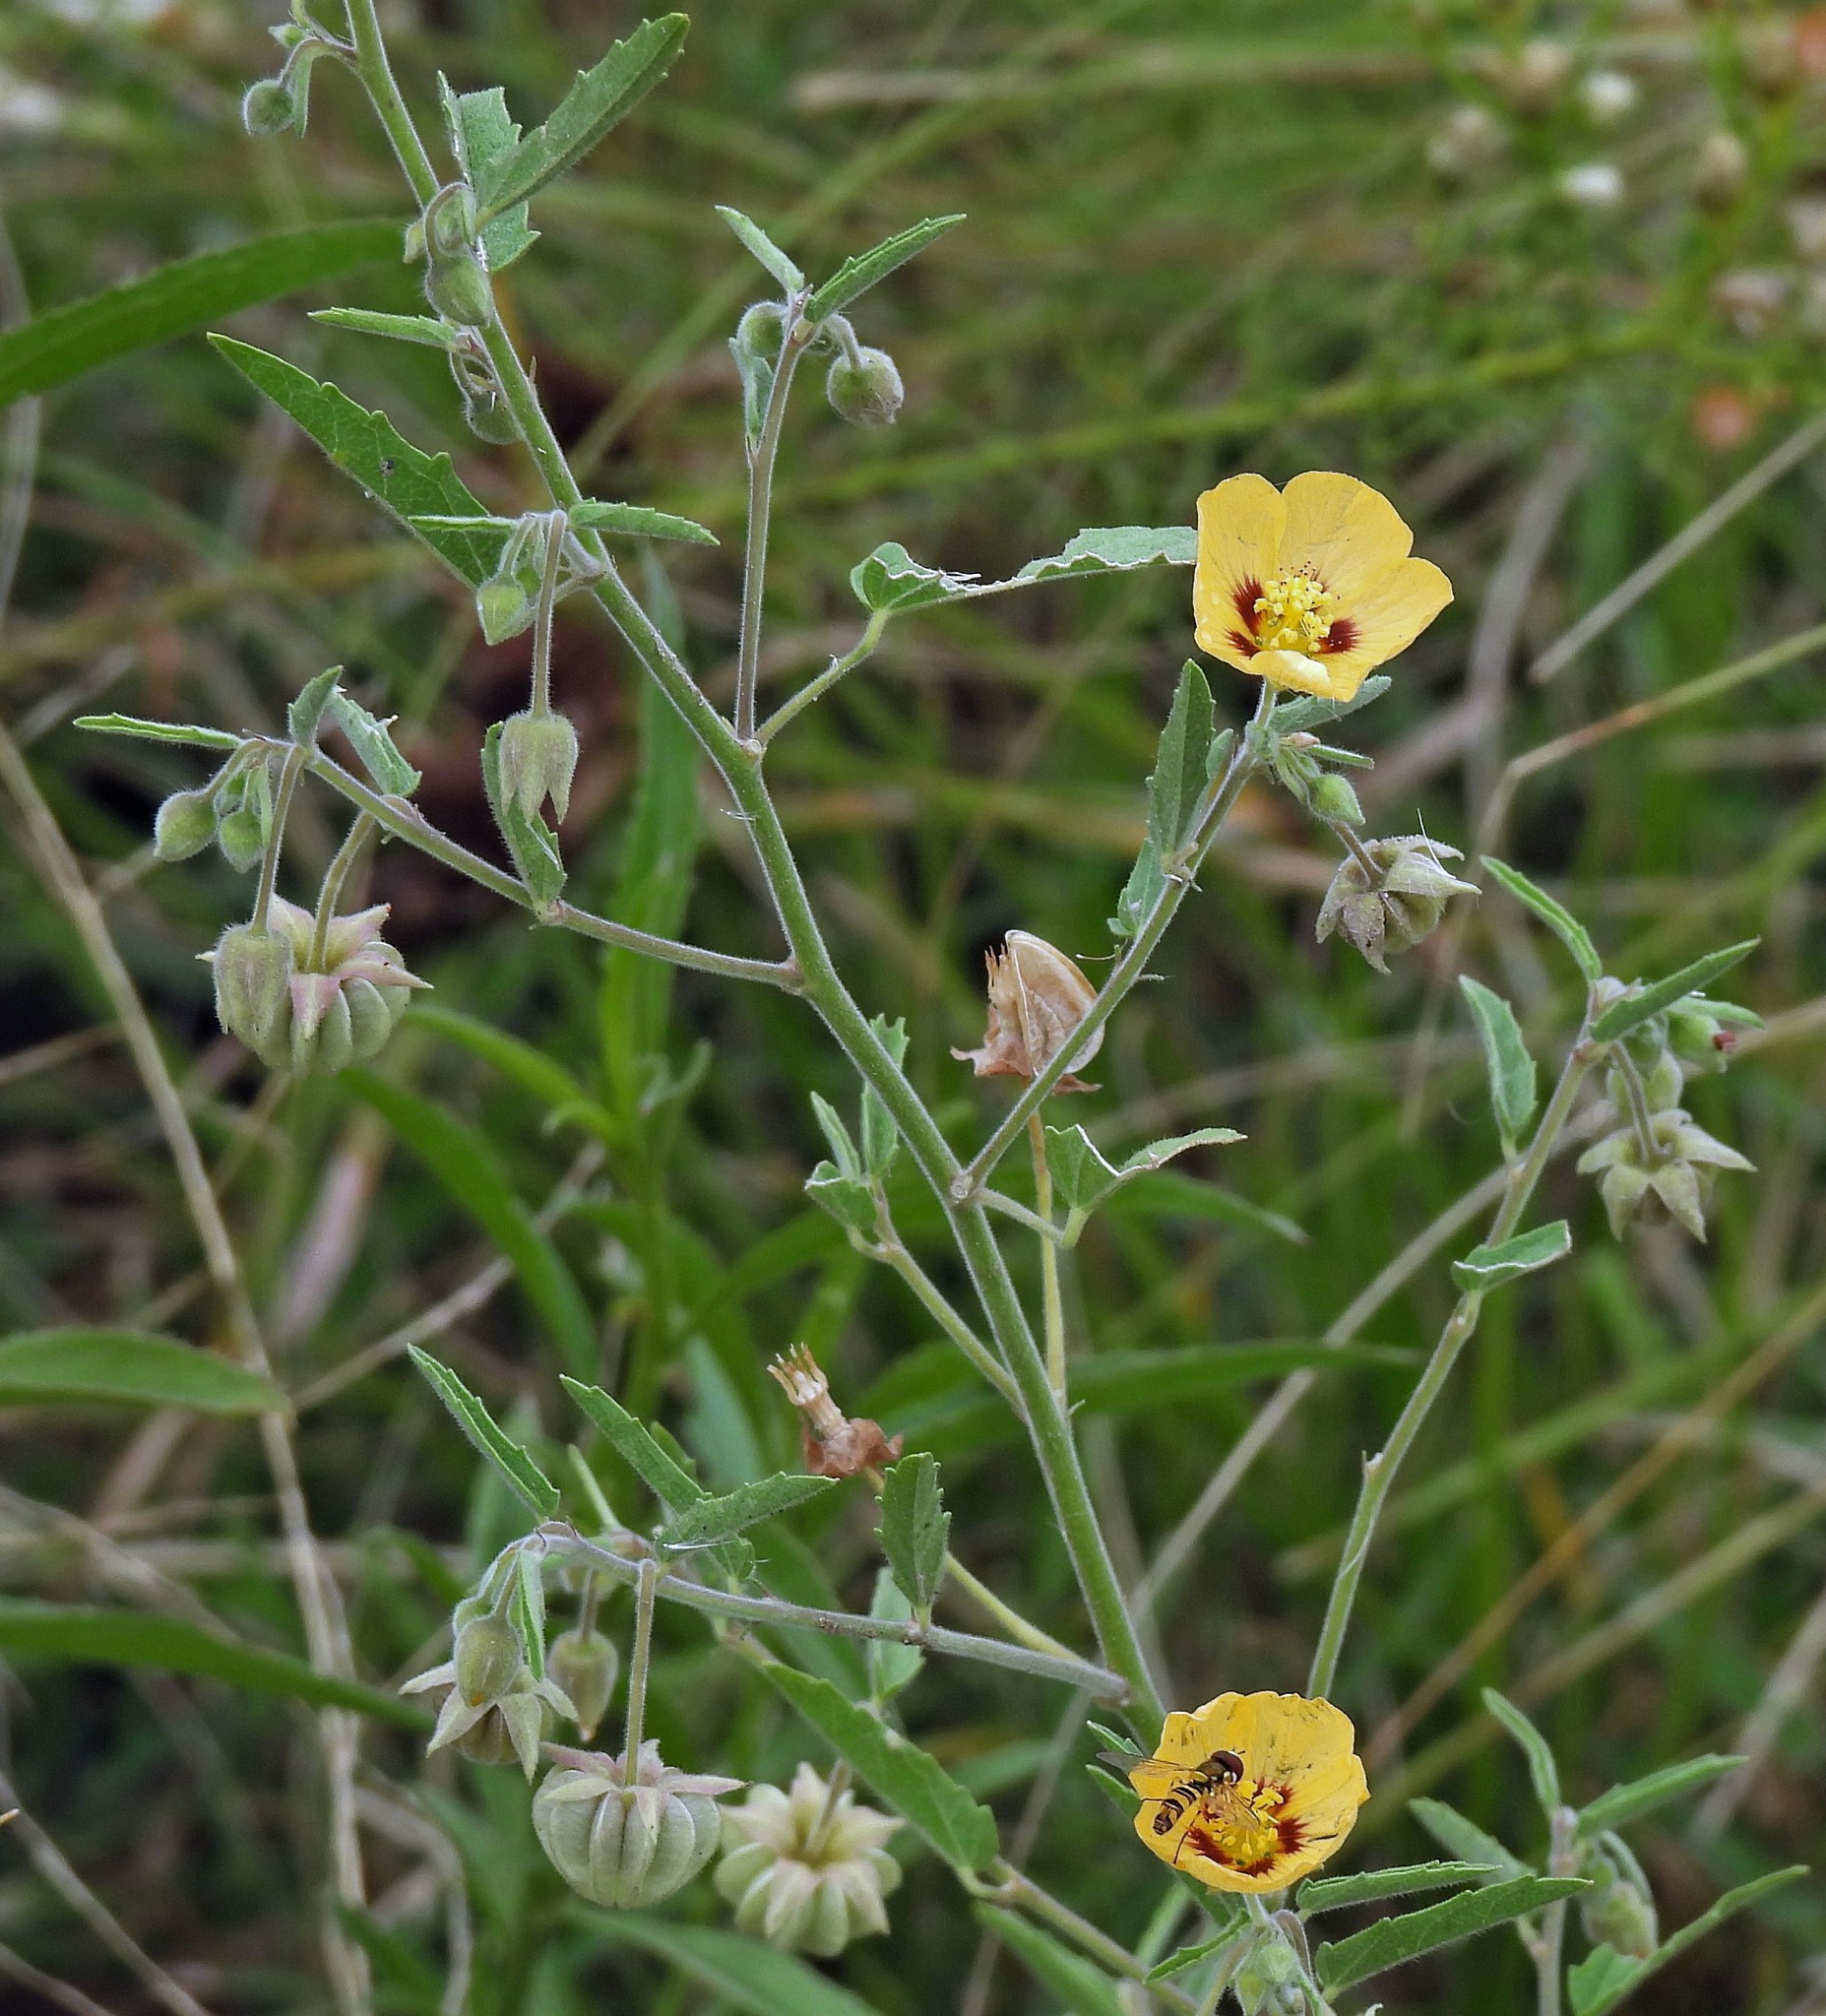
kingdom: Plantae
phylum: Tracheophyta
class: Magnoliopsida
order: Malvales
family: Malvaceae
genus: Gaya
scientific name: Gaya parviflora
